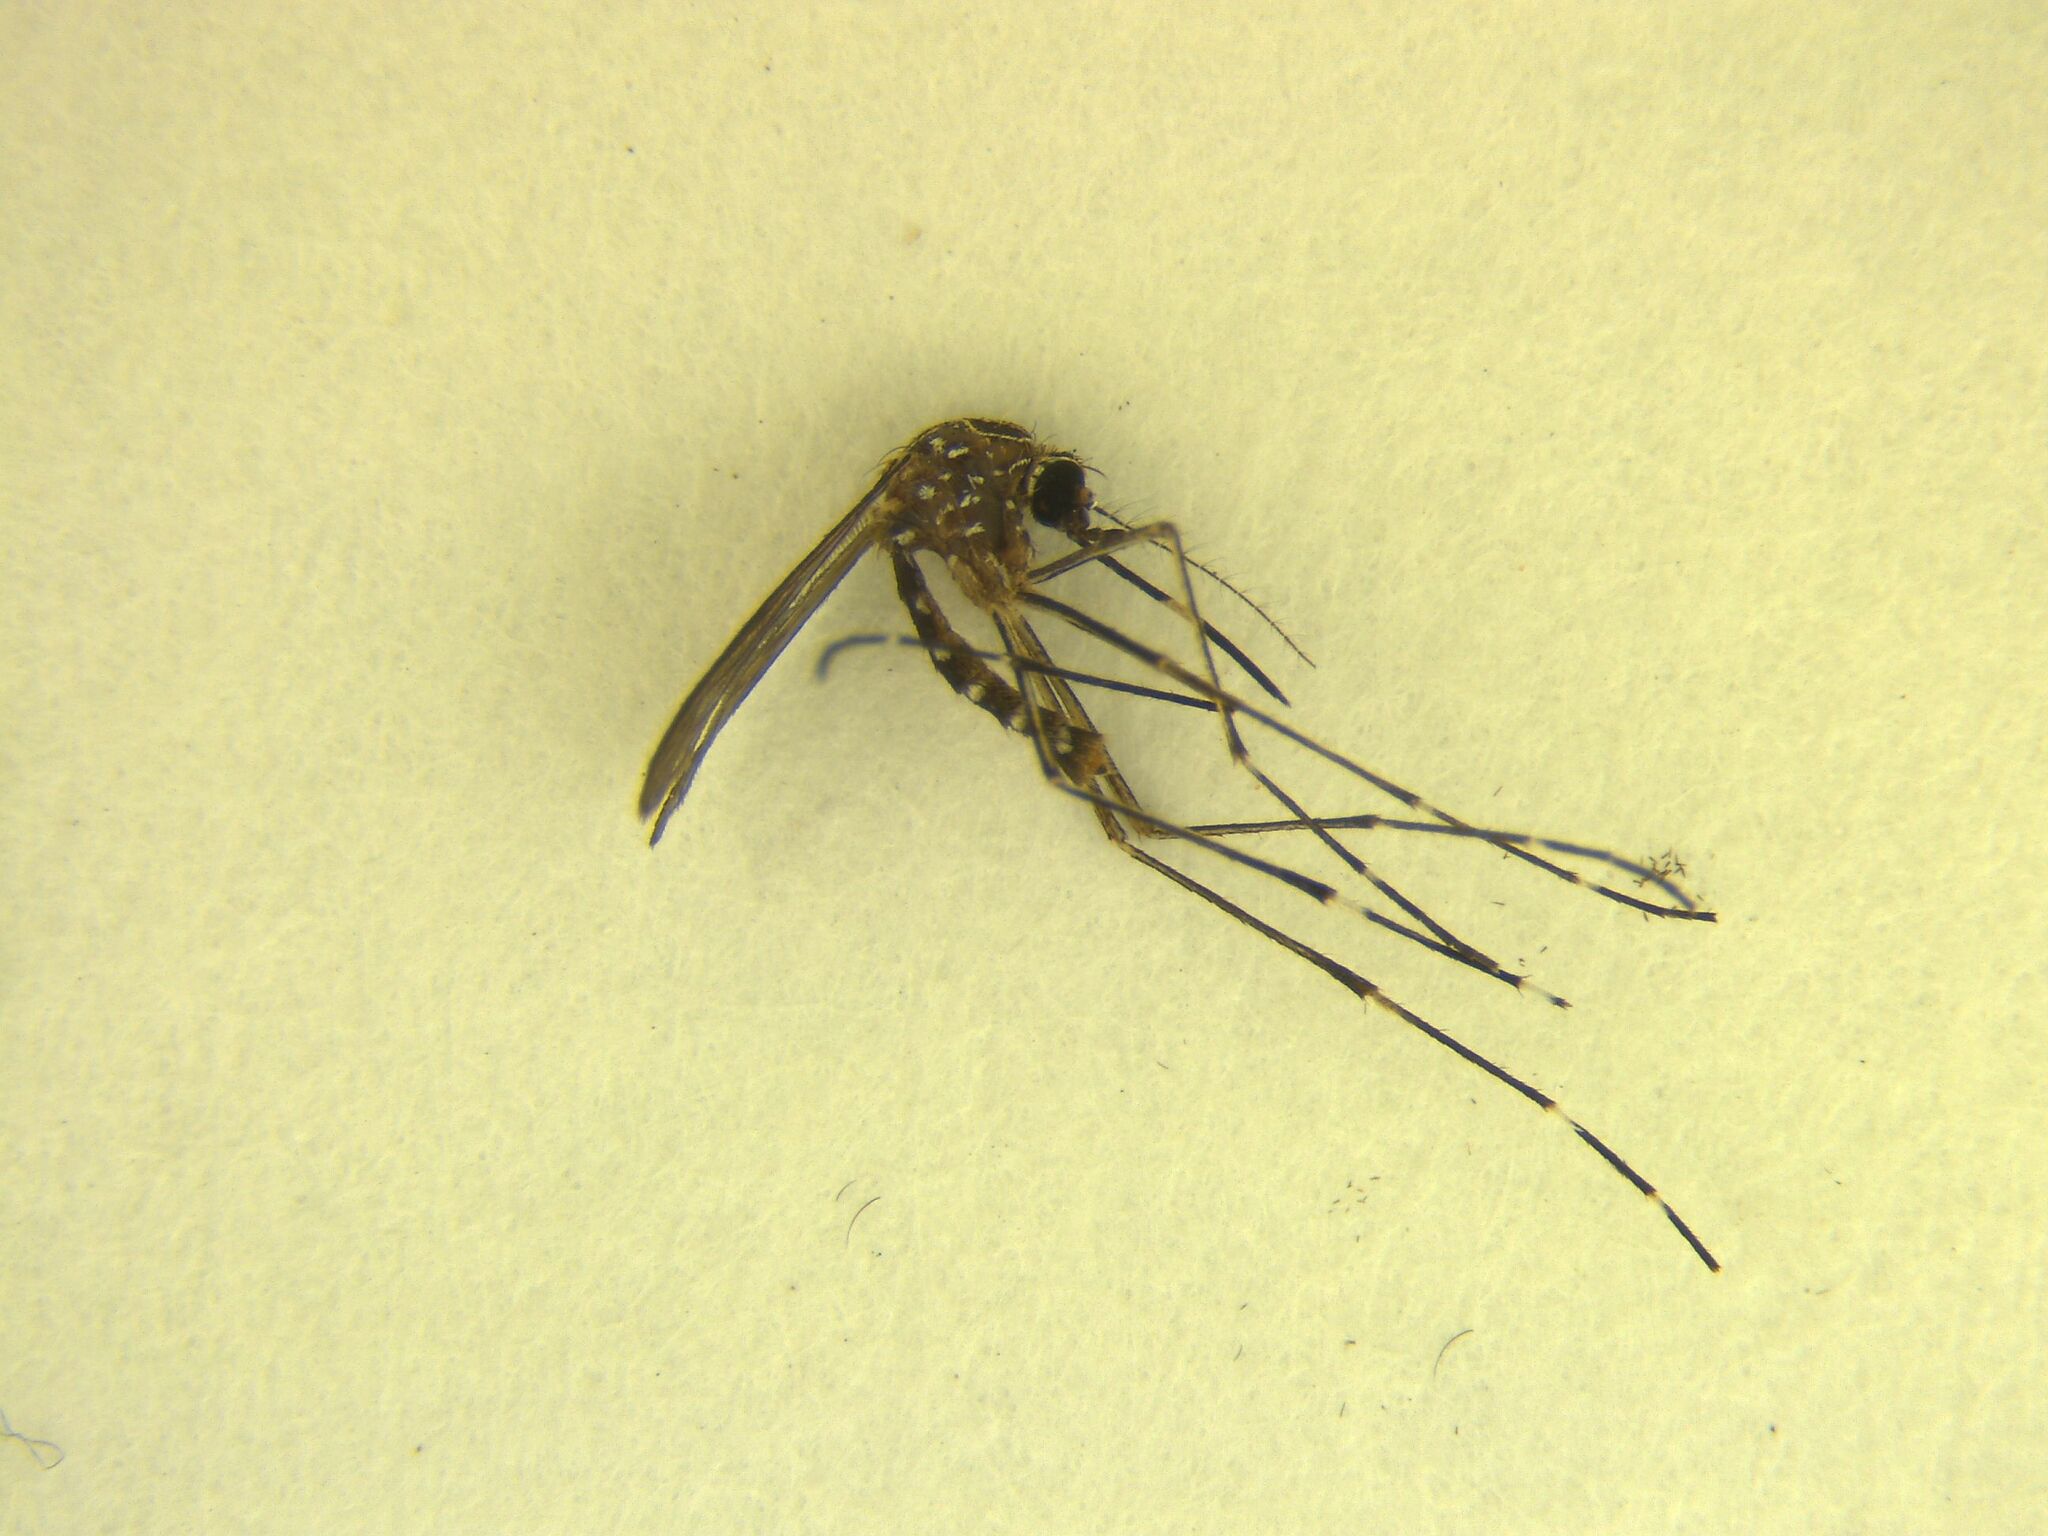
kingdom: Animalia
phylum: Arthropoda
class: Insecta
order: Diptera
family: Culicidae
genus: Aedes
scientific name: Aedes notoscriptus
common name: Australian backyard mosquito
